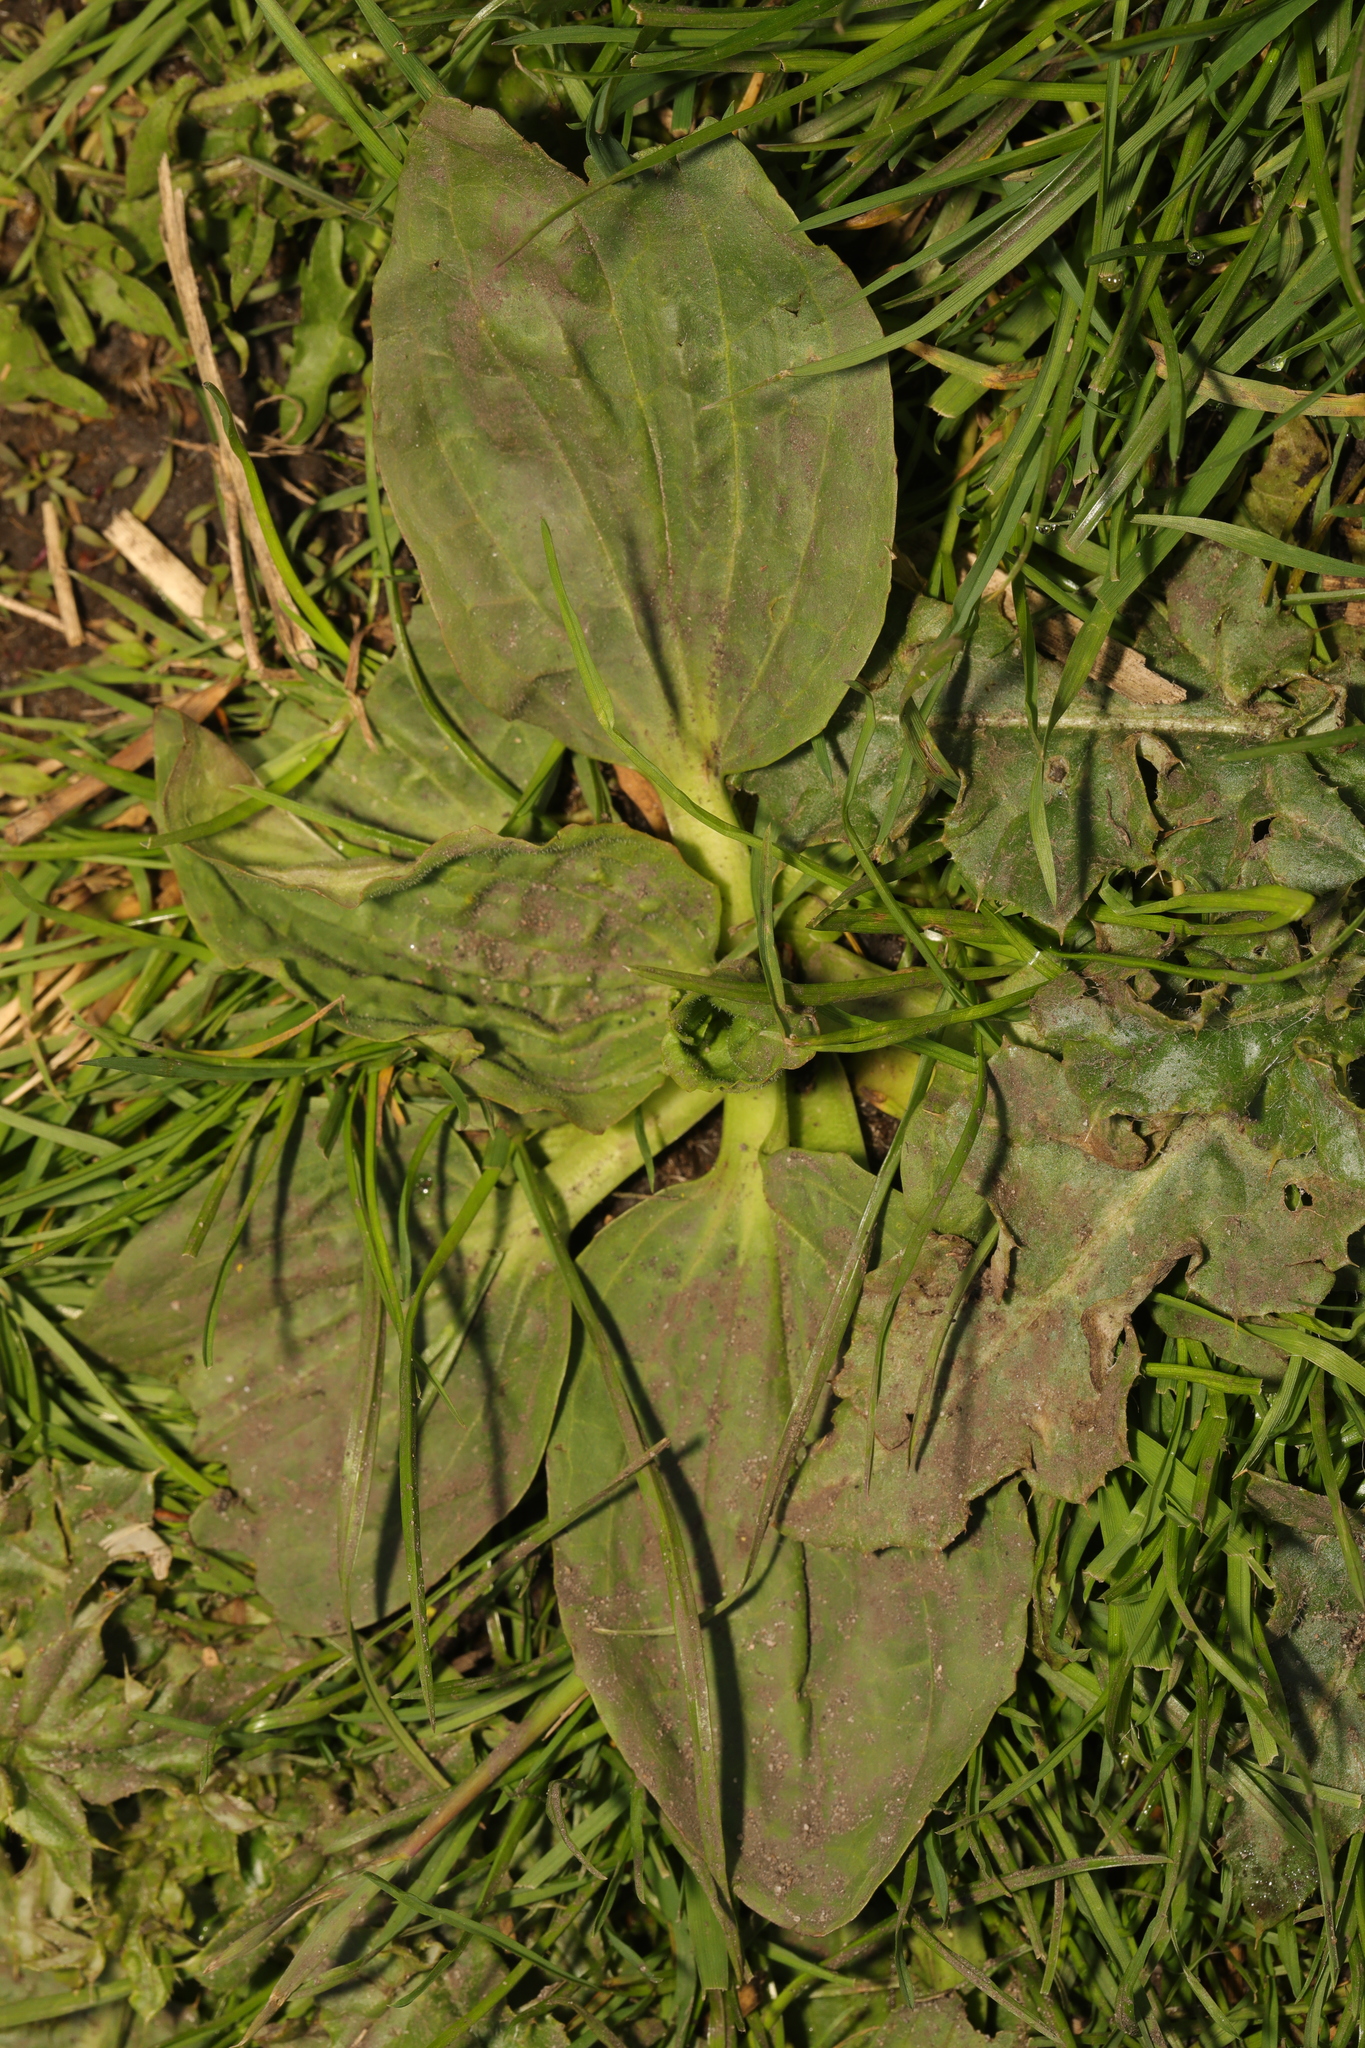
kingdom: Plantae
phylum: Tracheophyta
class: Magnoliopsida
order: Lamiales
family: Plantaginaceae
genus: Plantago
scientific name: Plantago major
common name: Common plantain
